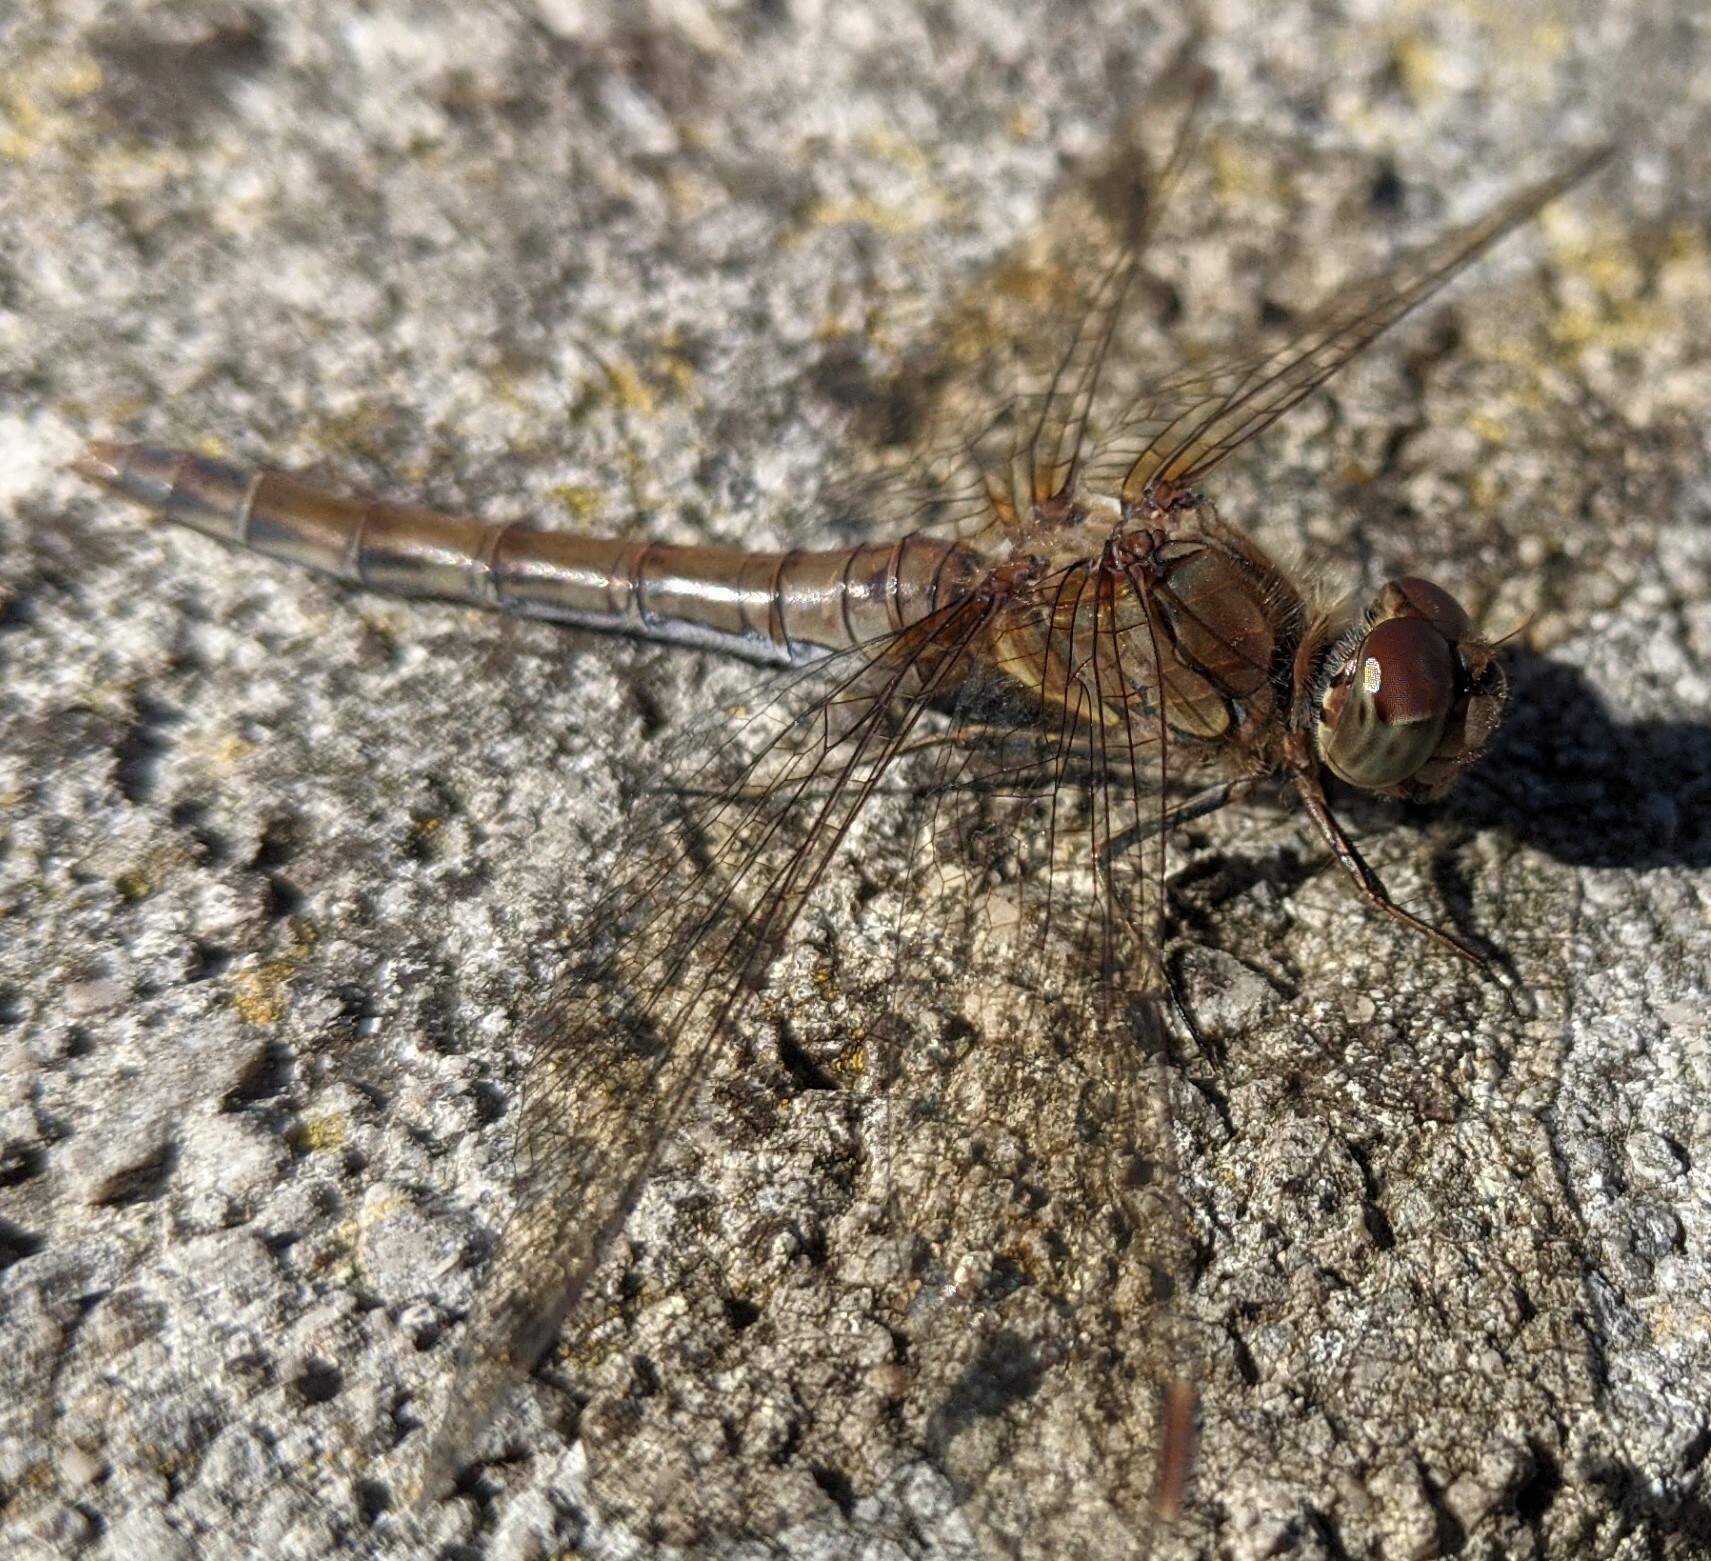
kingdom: Animalia
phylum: Arthropoda
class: Insecta
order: Odonata
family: Libellulidae
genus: Sympetrum
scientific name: Sympetrum striolatum
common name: Common darter
